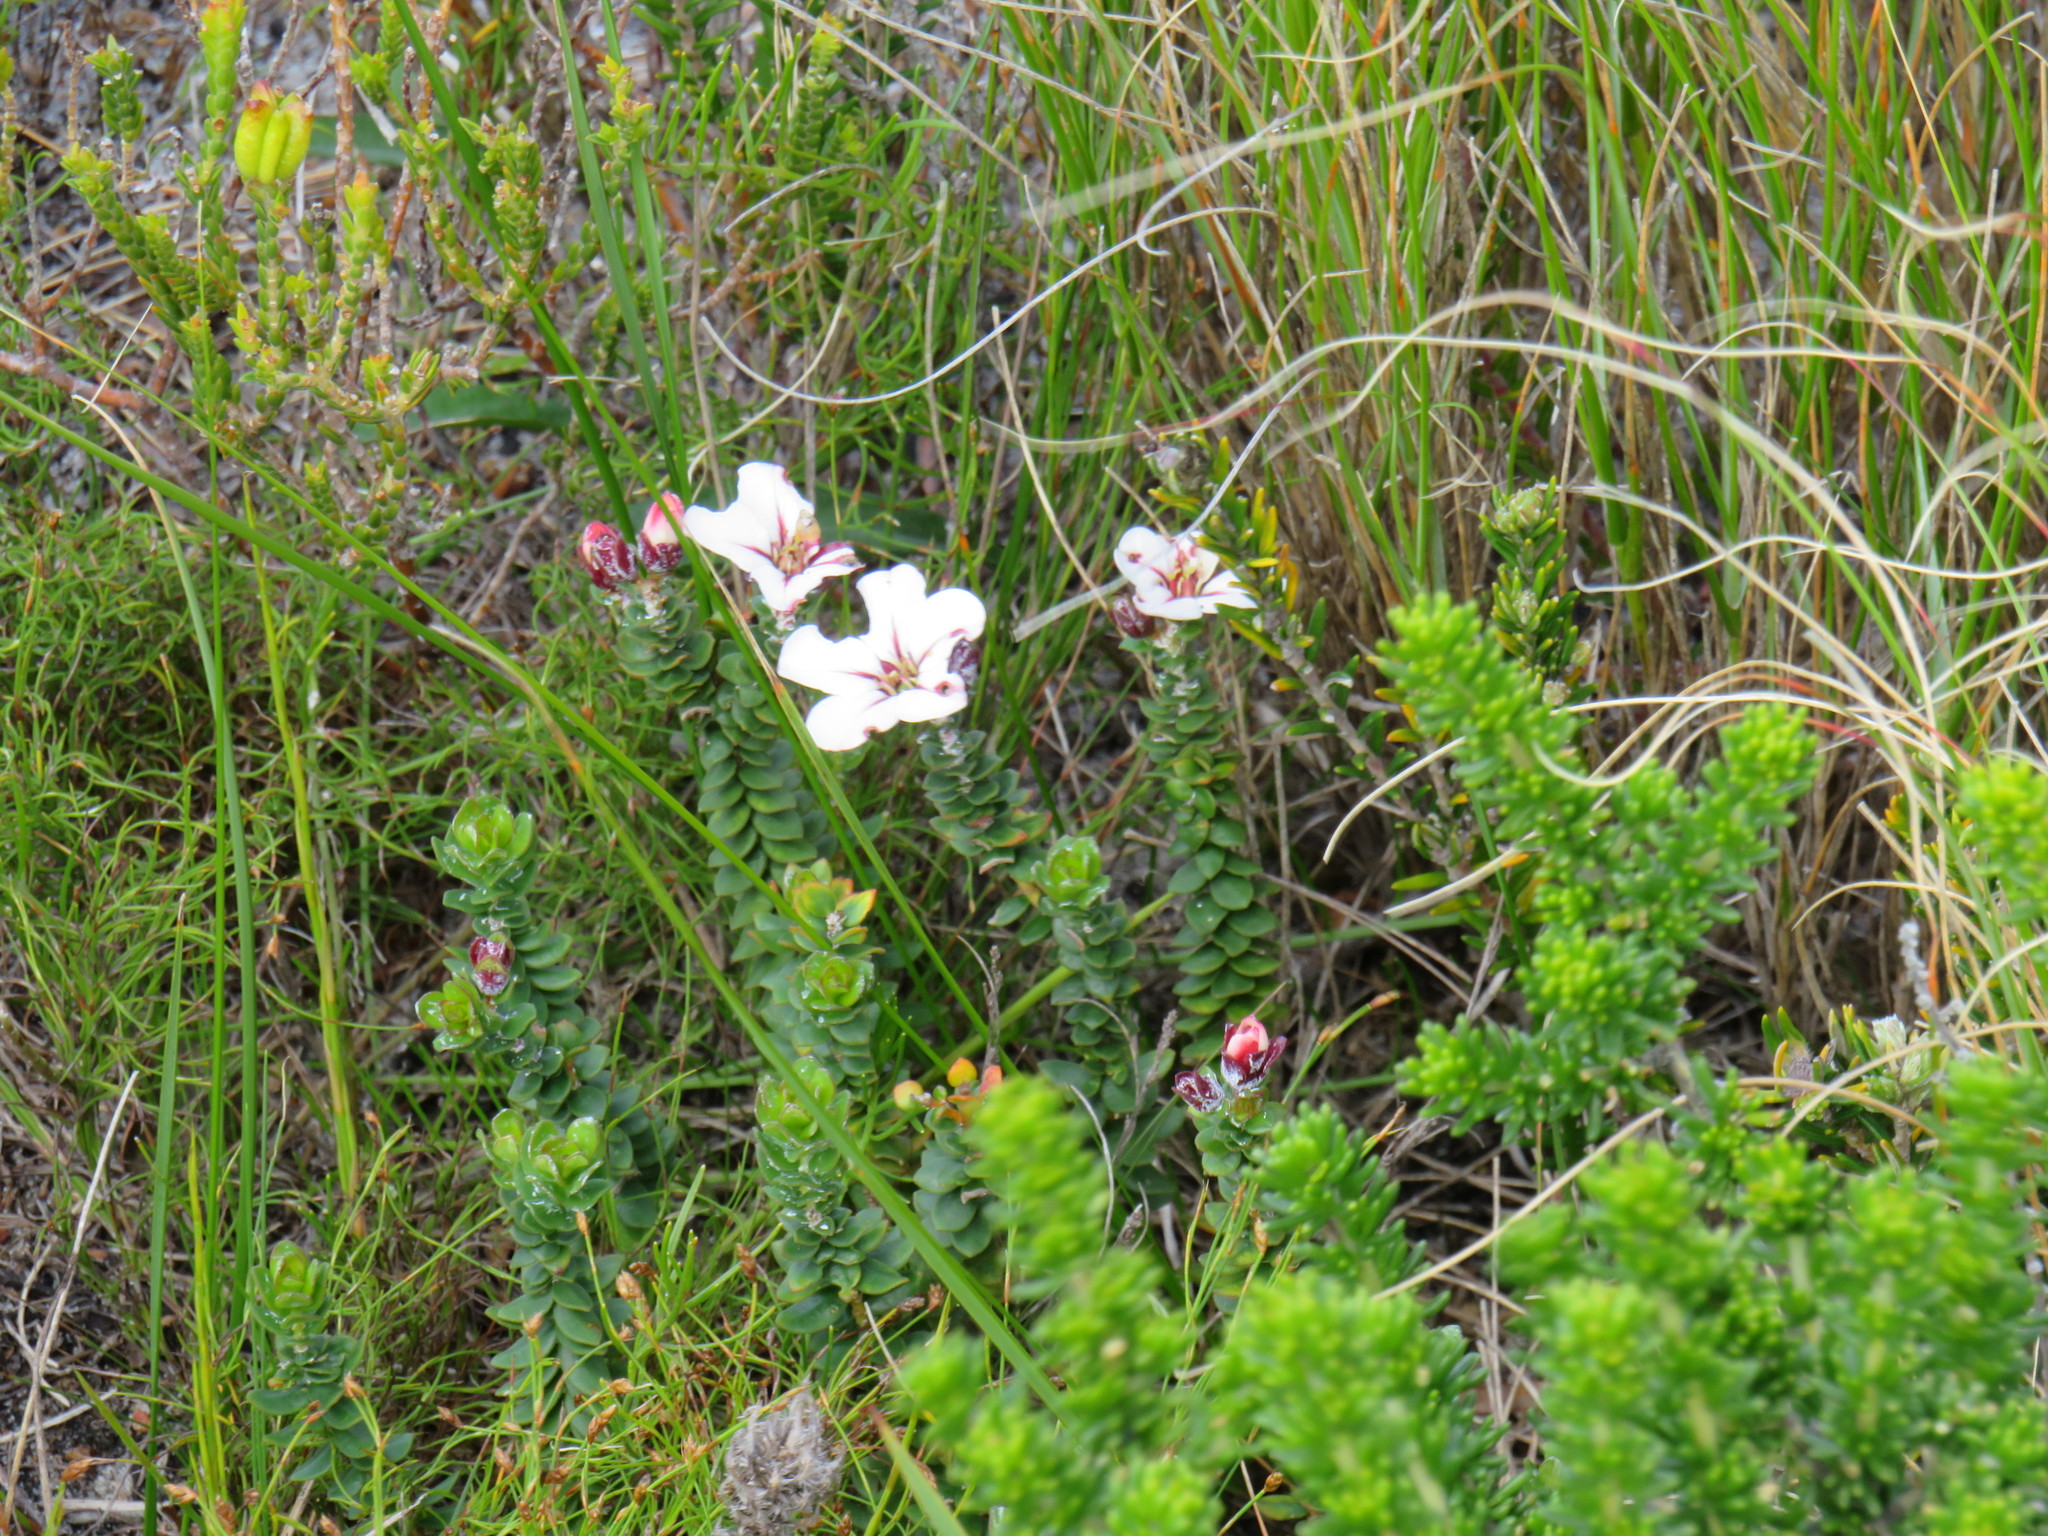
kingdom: Plantae
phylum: Tracheophyta
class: Magnoliopsida
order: Sapindales
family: Rutaceae
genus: Adenandra
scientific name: Adenandra villosa
